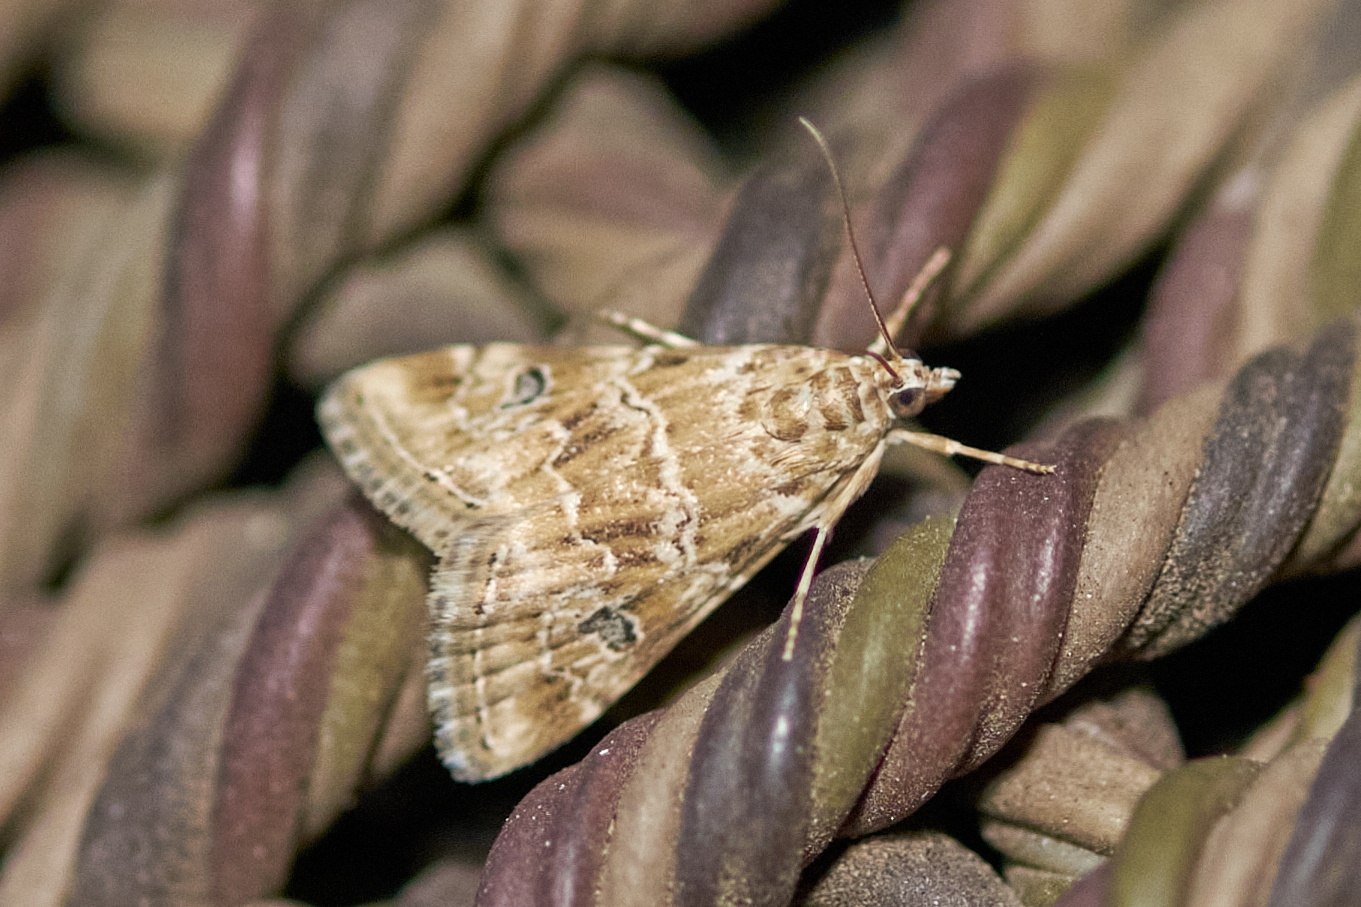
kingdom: Animalia
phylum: Arthropoda
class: Insecta
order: Lepidoptera
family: Crambidae
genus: Hellula
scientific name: Hellula rogatalis
